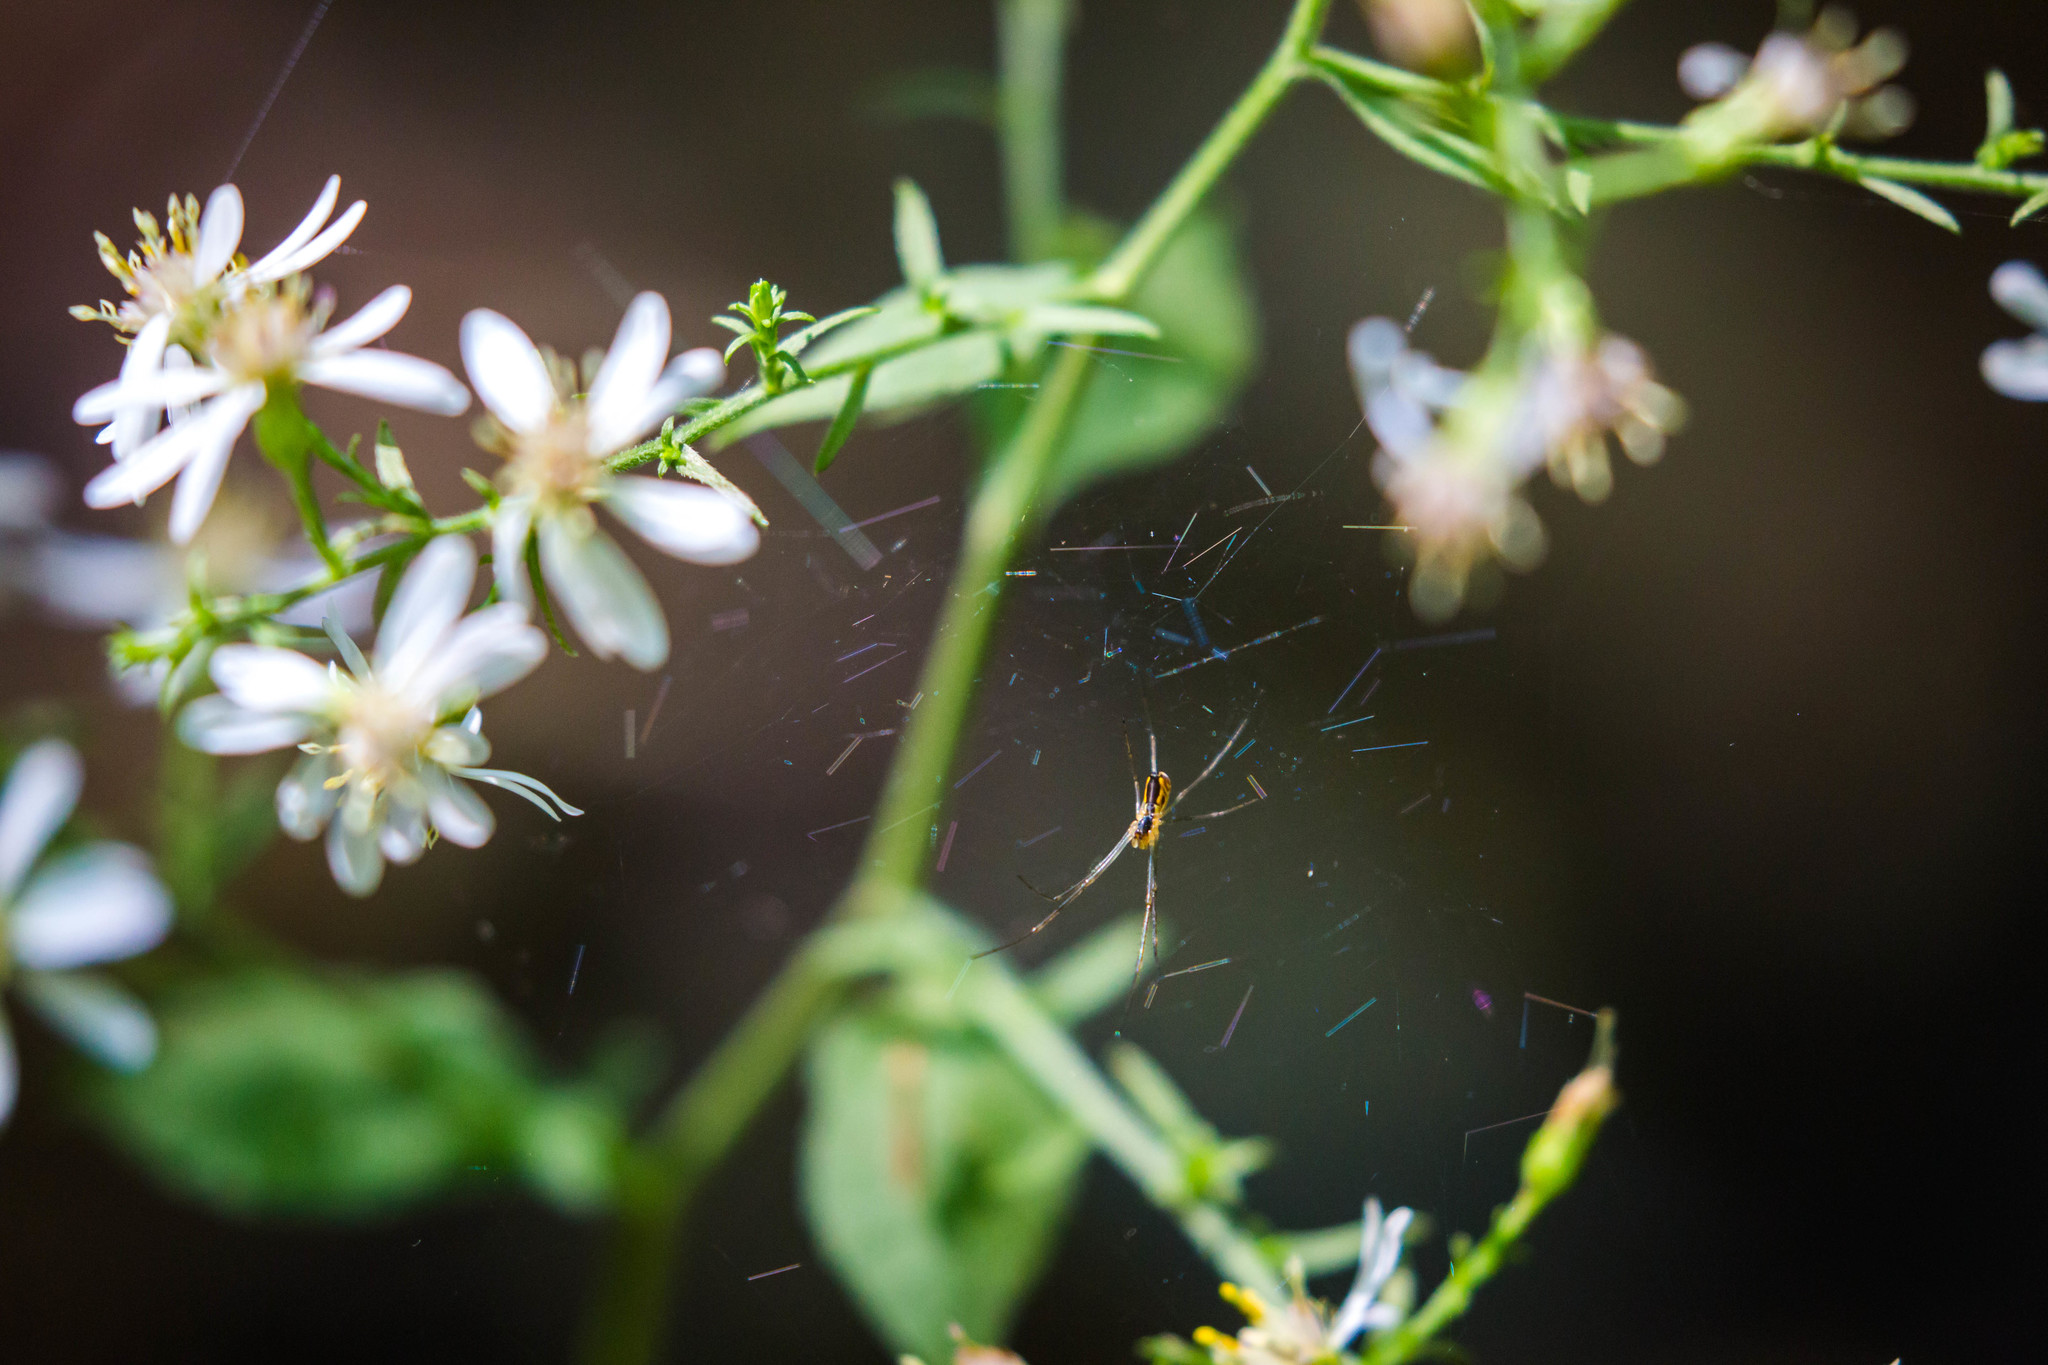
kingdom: Animalia
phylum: Arthropoda
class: Arachnida
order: Araneae
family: Linyphiidae
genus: Neriene
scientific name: Neriene radiata
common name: Filmy dome spider
